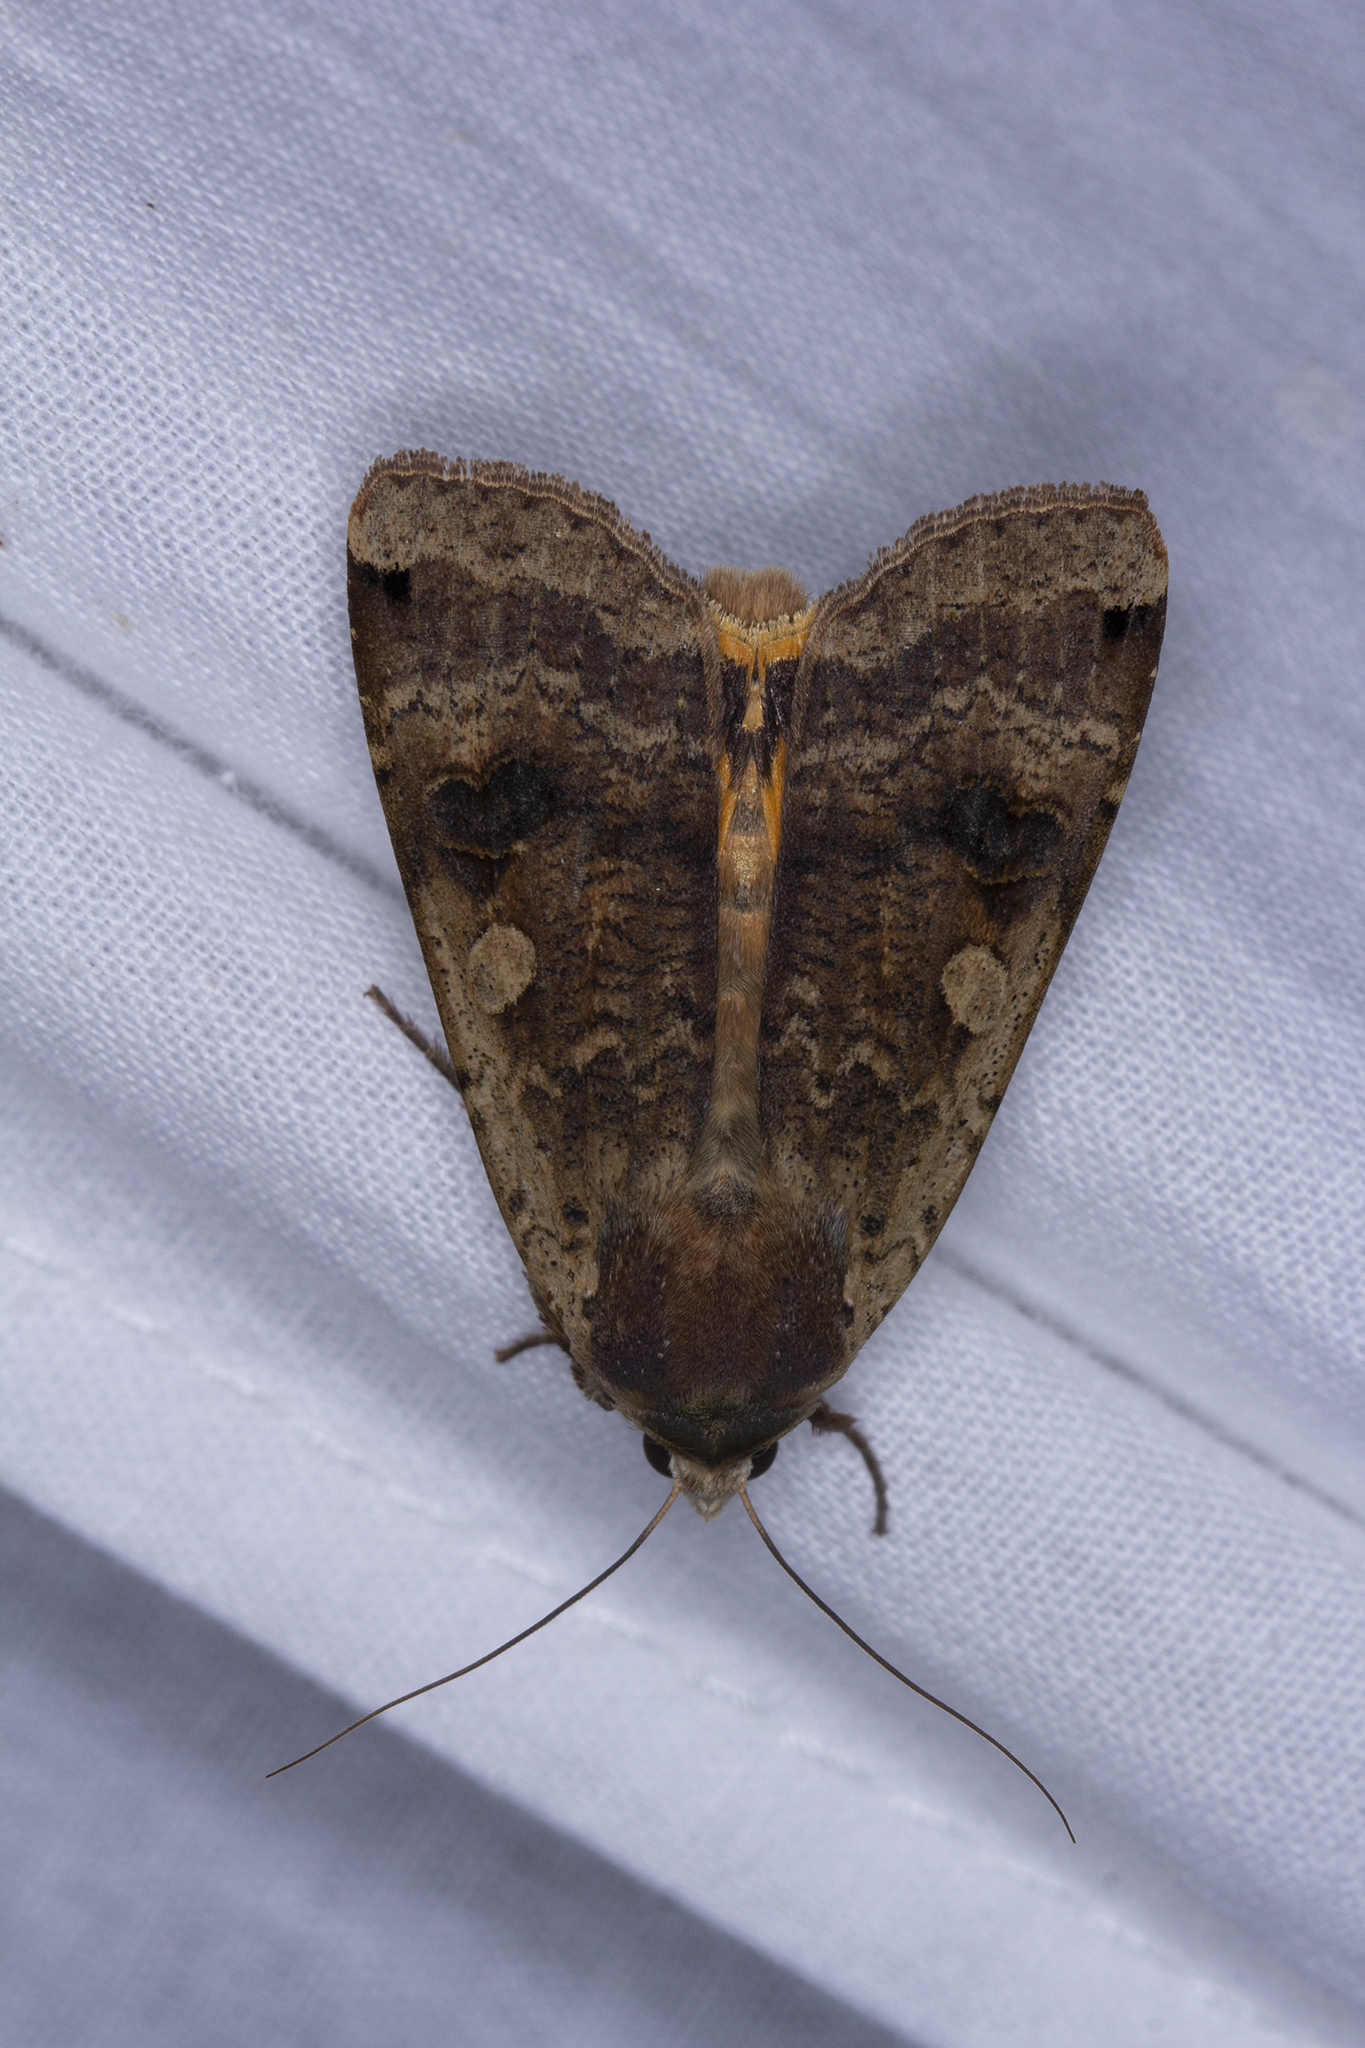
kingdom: Animalia
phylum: Arthropoda
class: Insecta
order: Lepidoptera
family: Noctuidae
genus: Noctua
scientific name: Noctua pronuba
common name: Large yellow underwing
